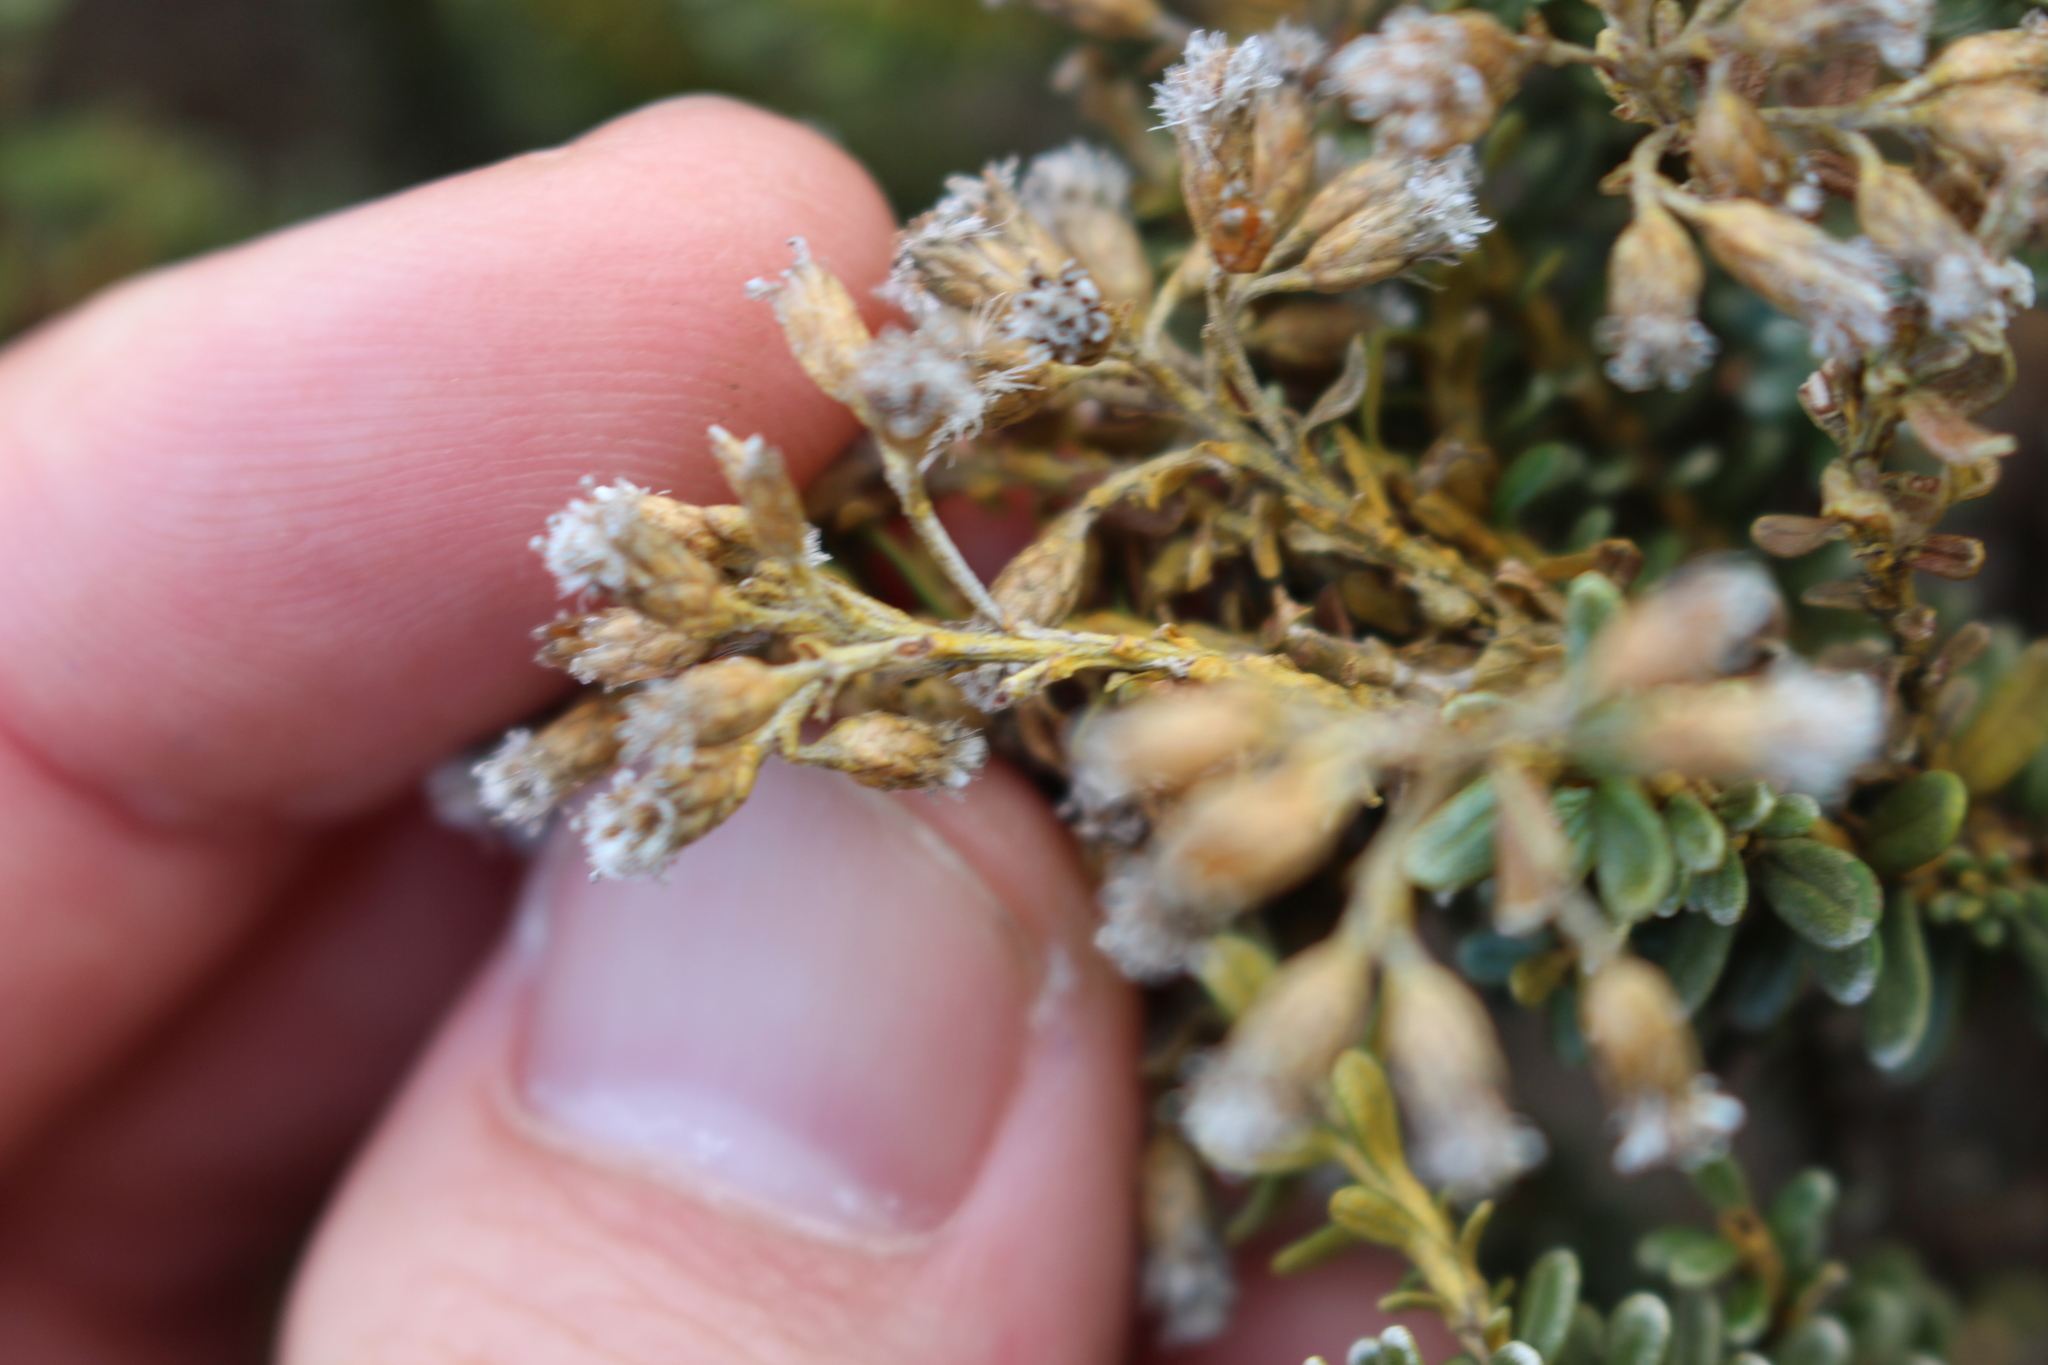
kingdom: Plantae
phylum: Tracheophyta
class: Magnoliopsida
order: Asterales
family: Asteraceae
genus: Ozothamnus
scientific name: Ozothamnus leptophyllus
